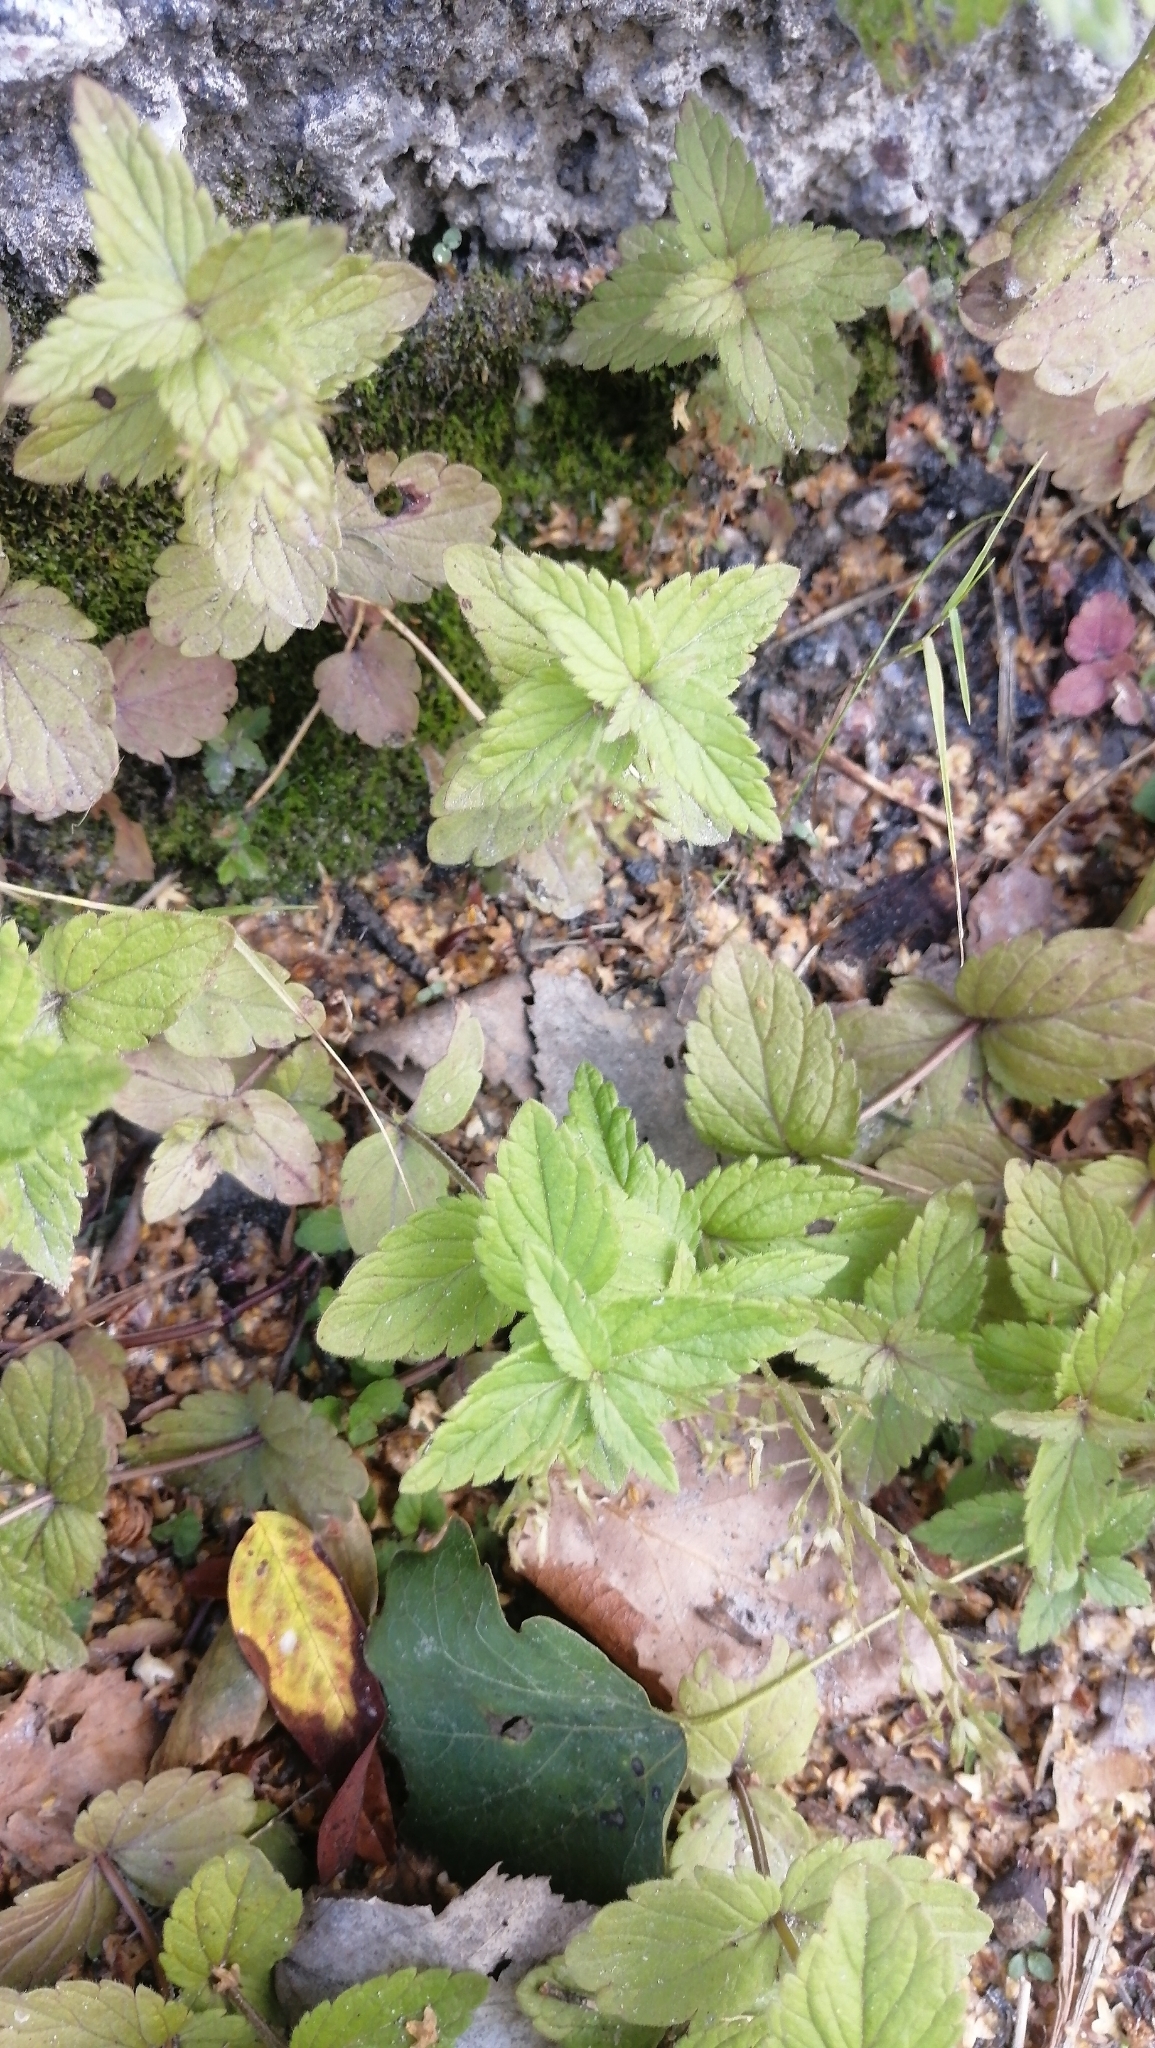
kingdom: Plantae
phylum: Tracheophyta
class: Magnoliopsida
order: Lamiales
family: Plantaginaceae
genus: Veronica
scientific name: Veronica chamaedrys
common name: Germander speedwell
